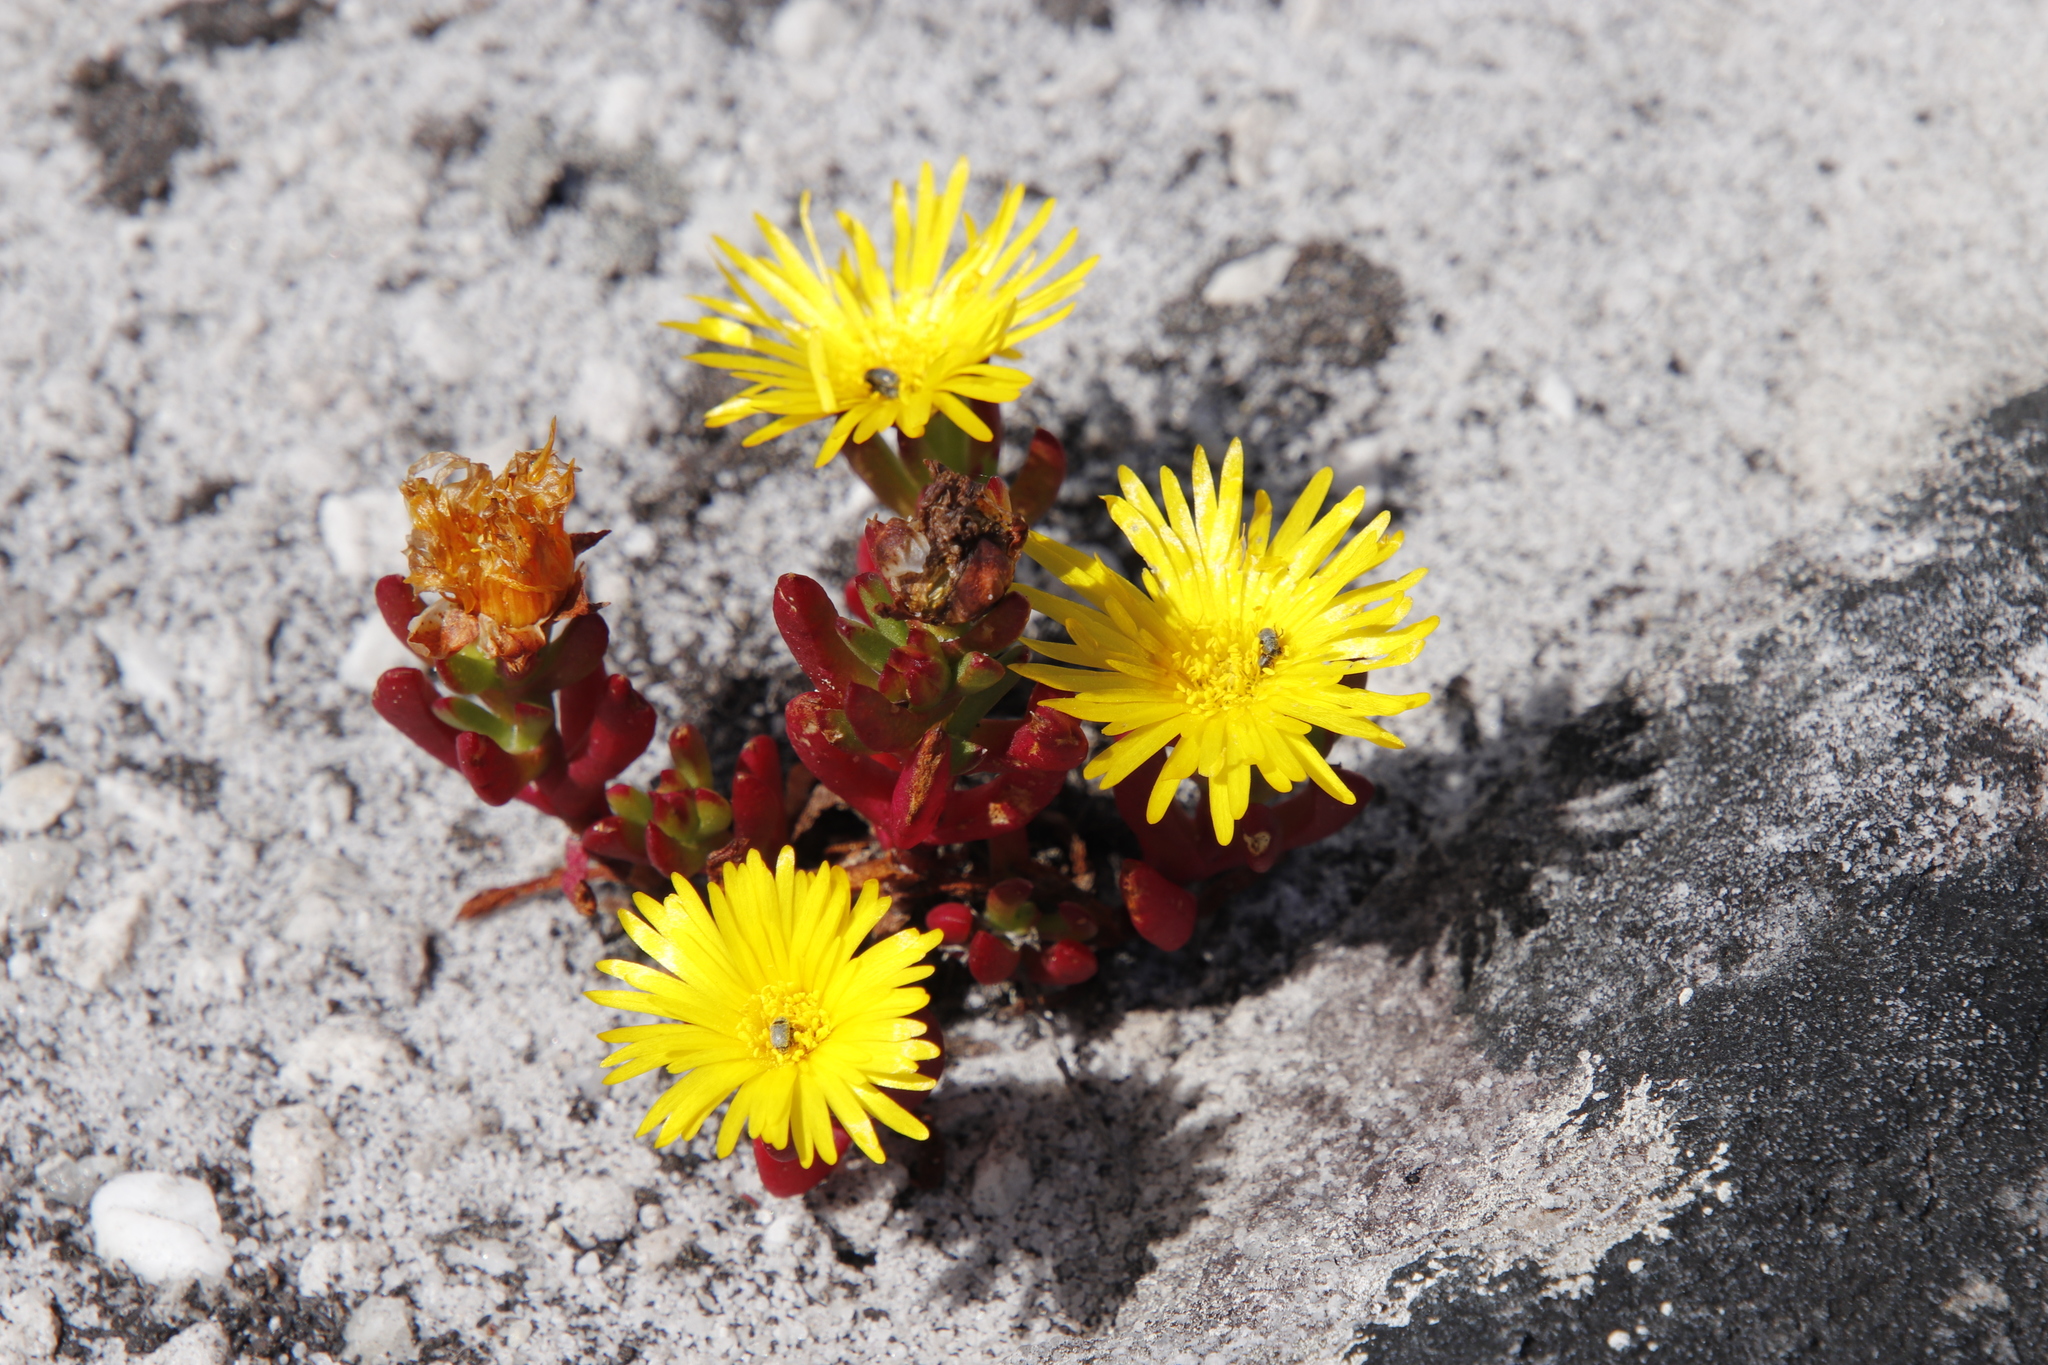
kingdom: Plantae
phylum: Tracheophyta
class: Magnoliopsida
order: Caryophyllales
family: Aizoaceae
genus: Lampranthus
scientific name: Lampranthus promontorii
